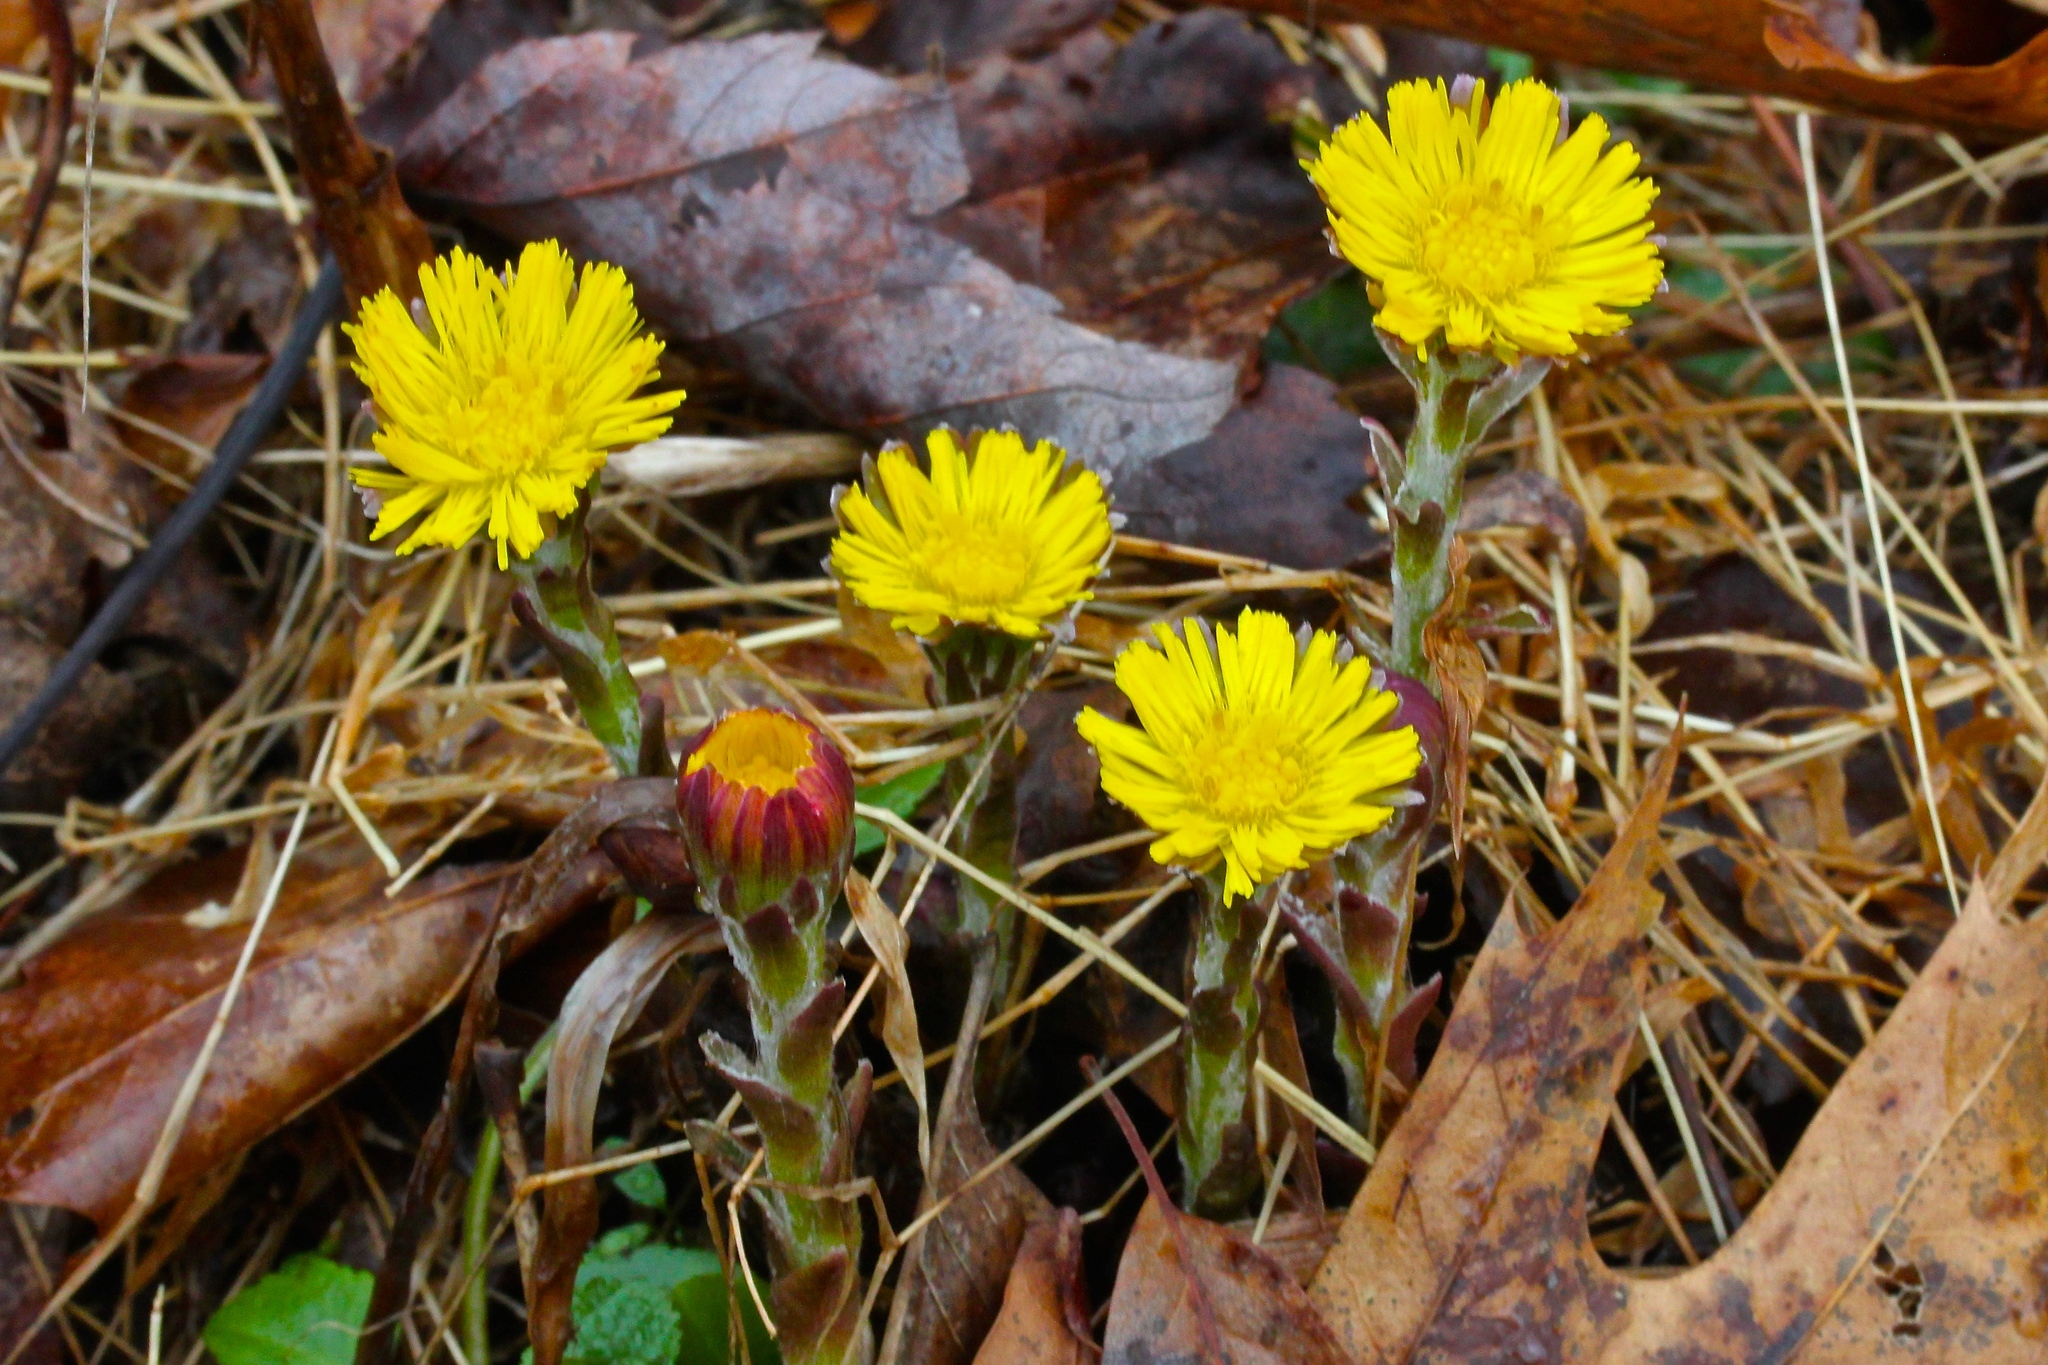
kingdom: Plantae
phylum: Tracheophyta
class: Magnoliopsida
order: Asterales
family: Asteraceae
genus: Tussilago
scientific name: Tussilago farfara
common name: Coltsfoot
